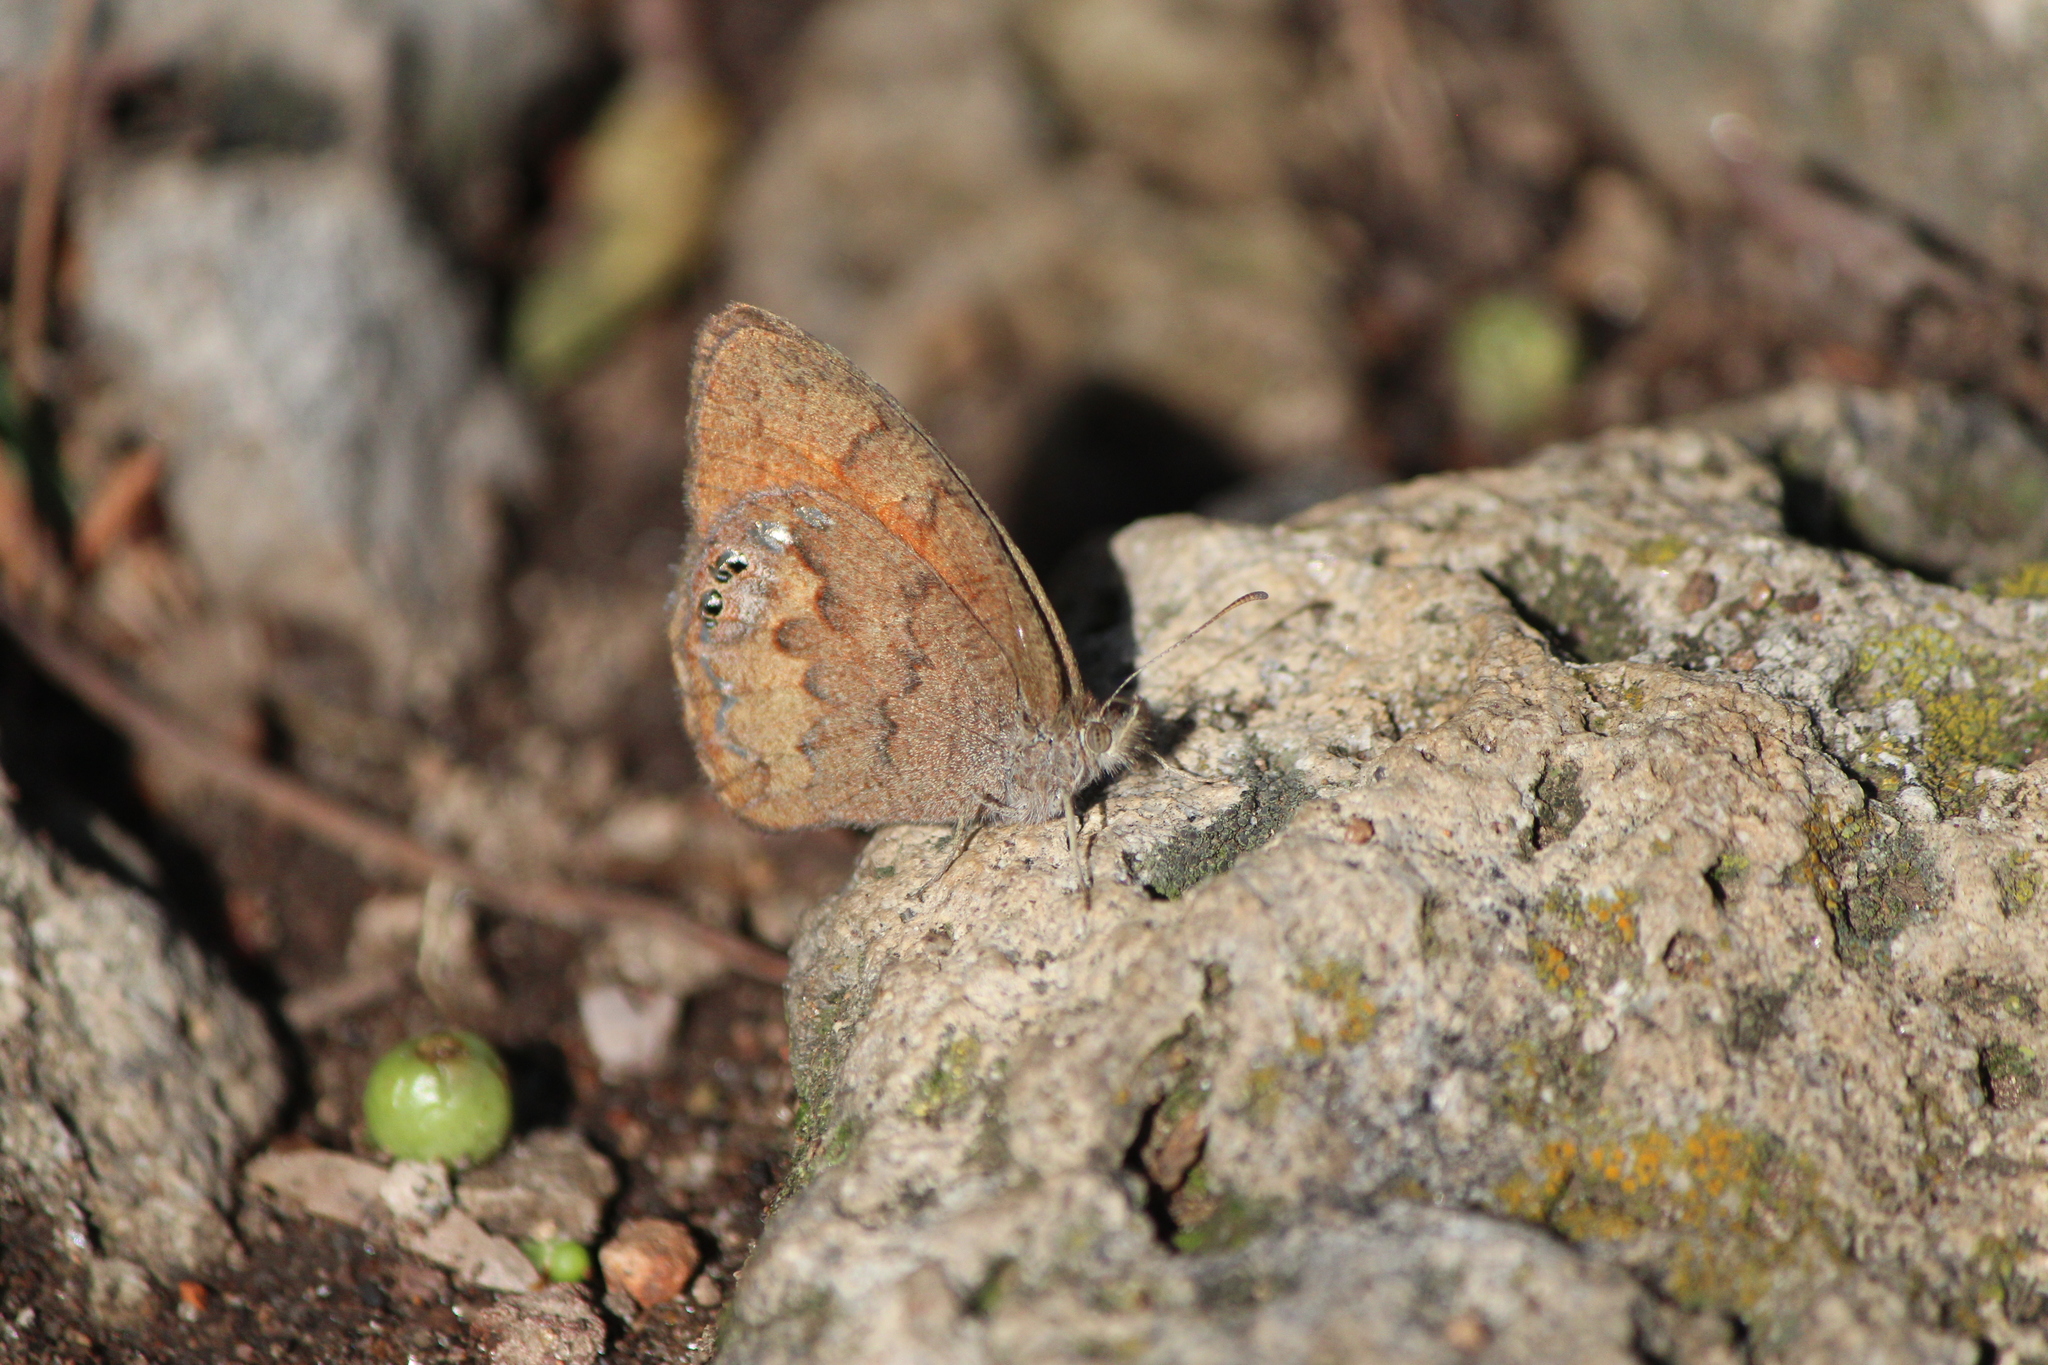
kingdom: Animalia
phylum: Arthropoda
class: Insecta
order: Lepidoptera
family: Nymphalidae
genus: Euptychia
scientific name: Euptychia Cyllopsis pertepida
